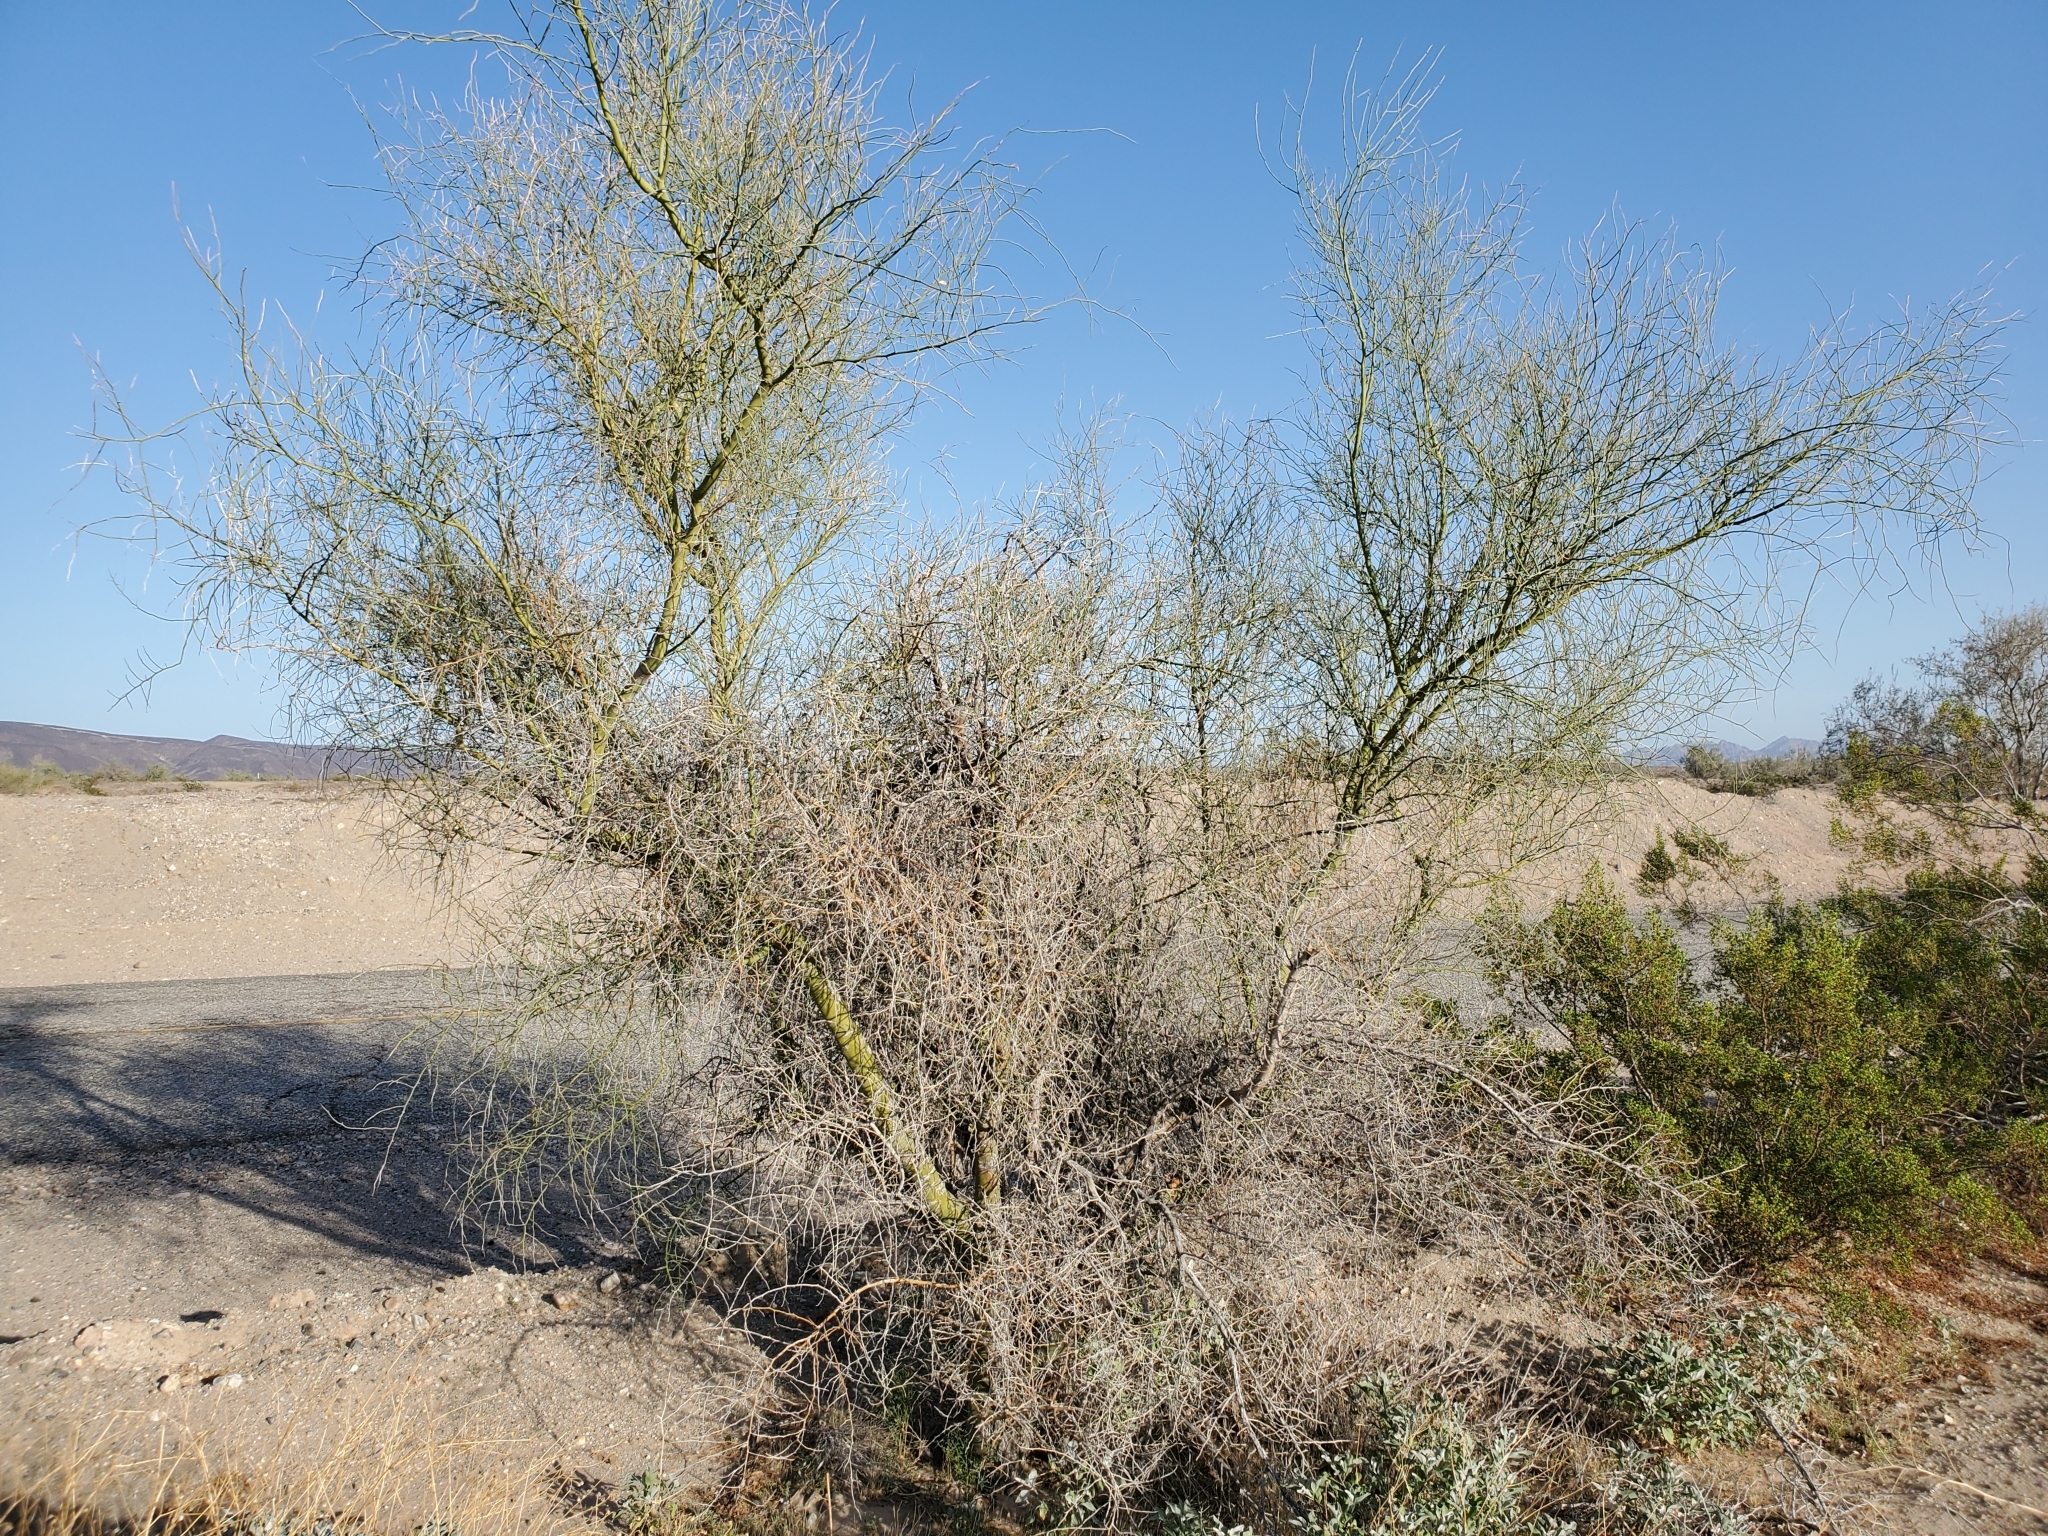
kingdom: Plantae
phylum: Tracheophyta
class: Magnoliopsida
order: Fabales
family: Fabaceae
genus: Parkinsonia
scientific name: Parkinsonia florida
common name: Blue paloverde
